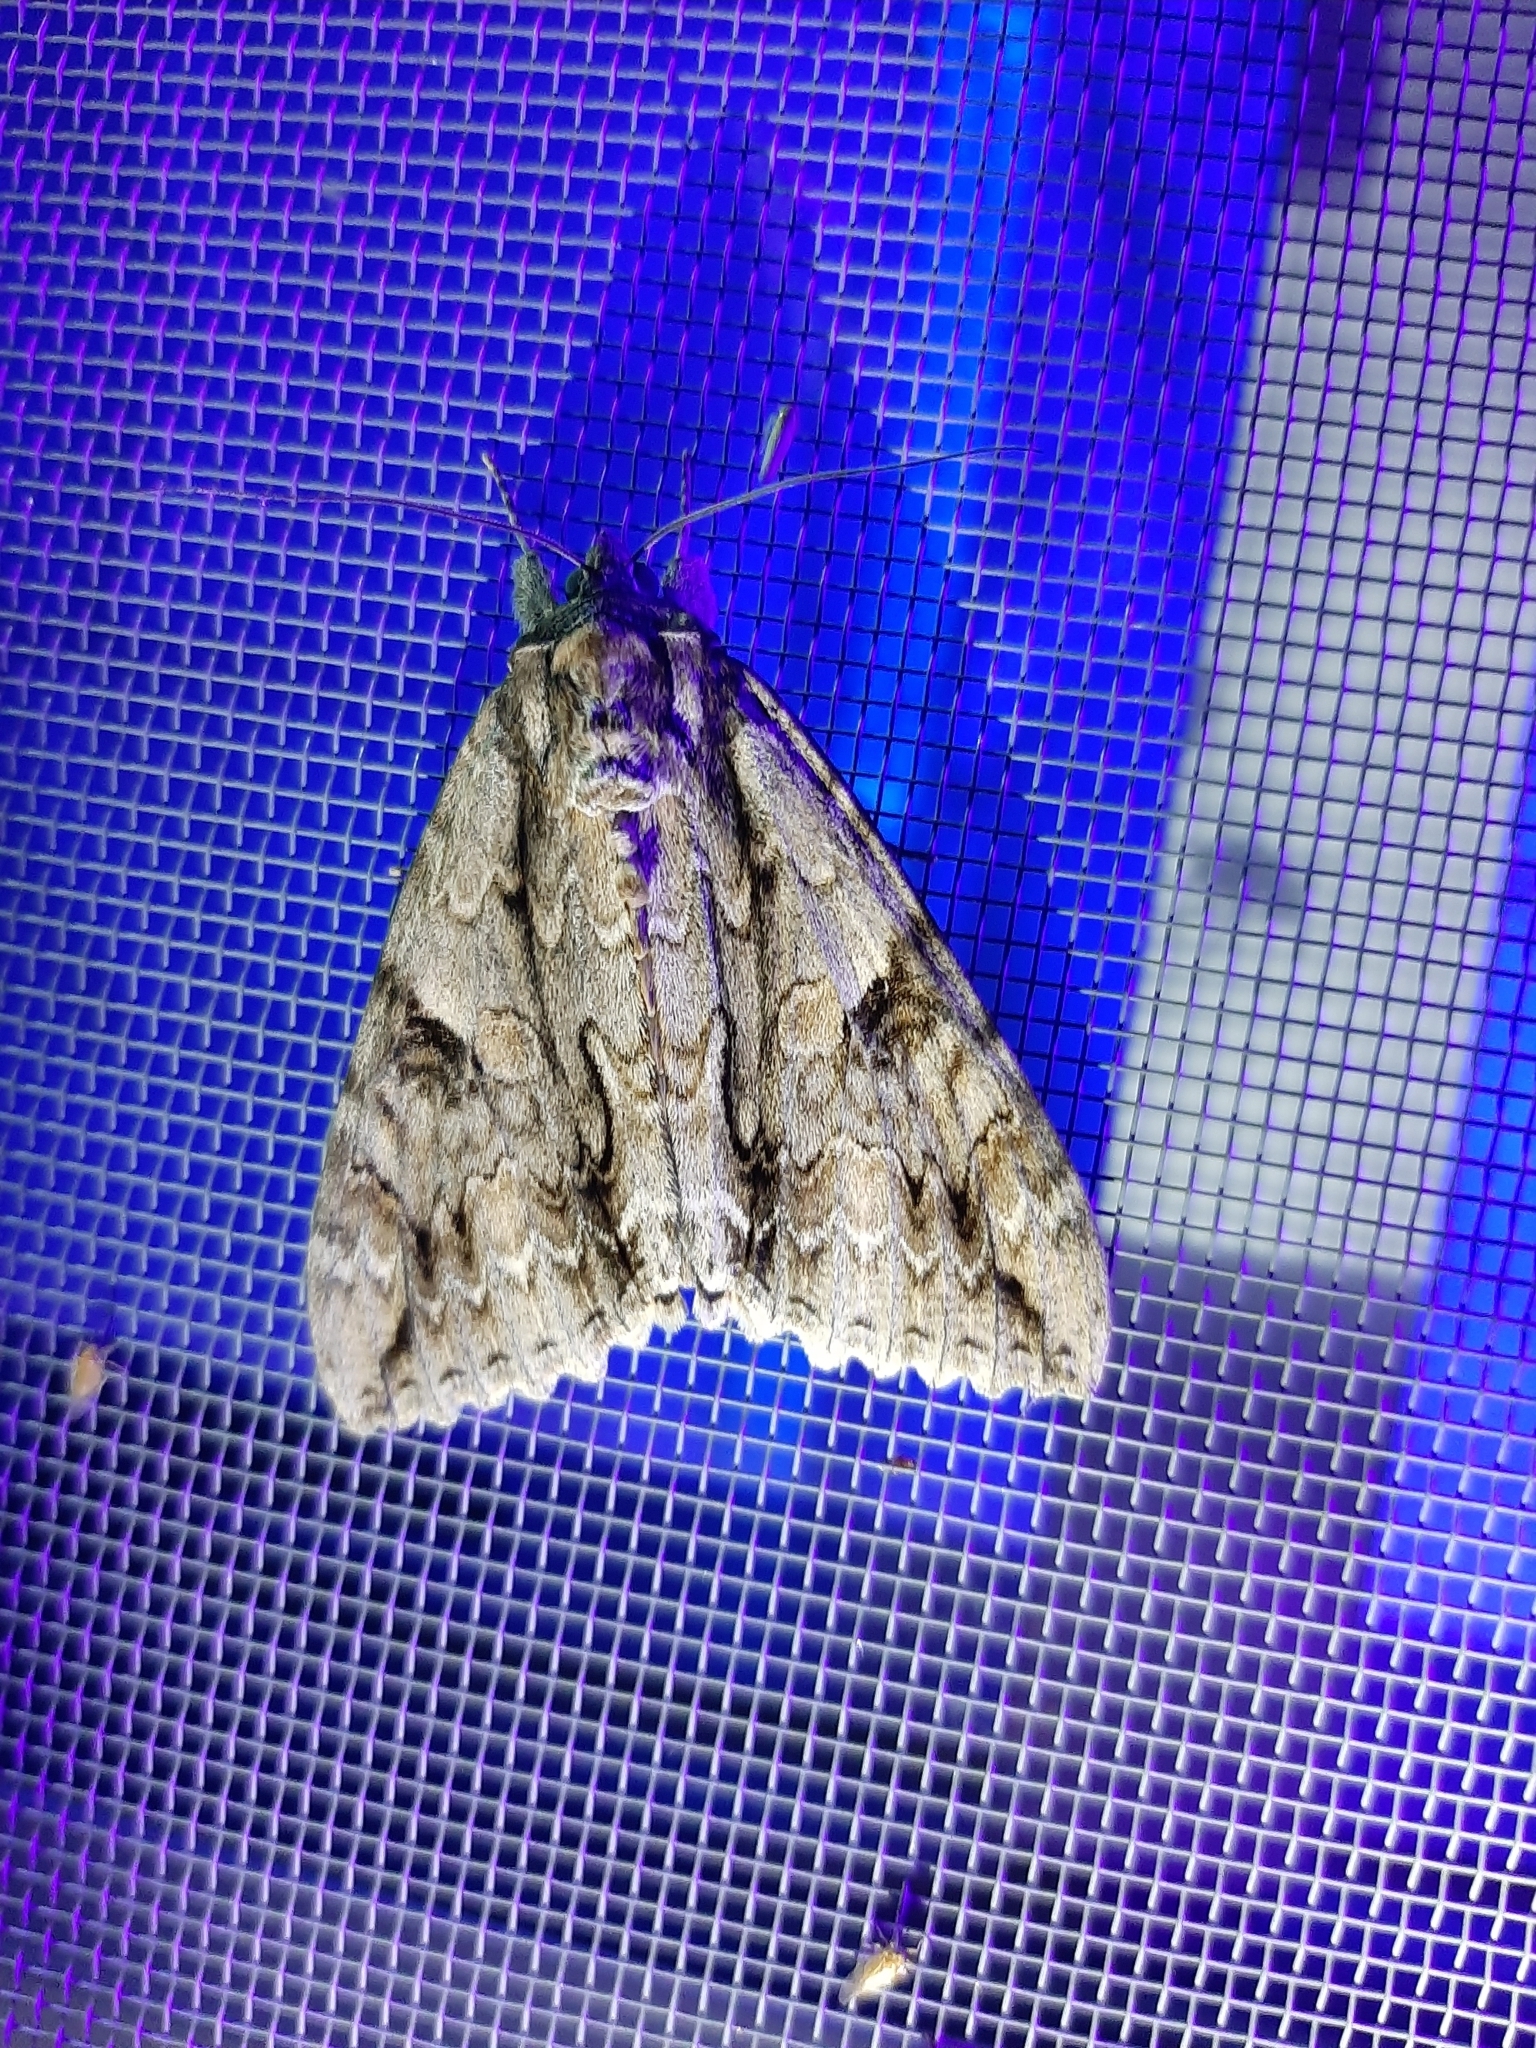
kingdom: Animalia
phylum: Arthropoda
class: Insecta
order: Lepidoptera
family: Erebidae
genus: Catocala
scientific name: Catocala parta
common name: Mother underwing
